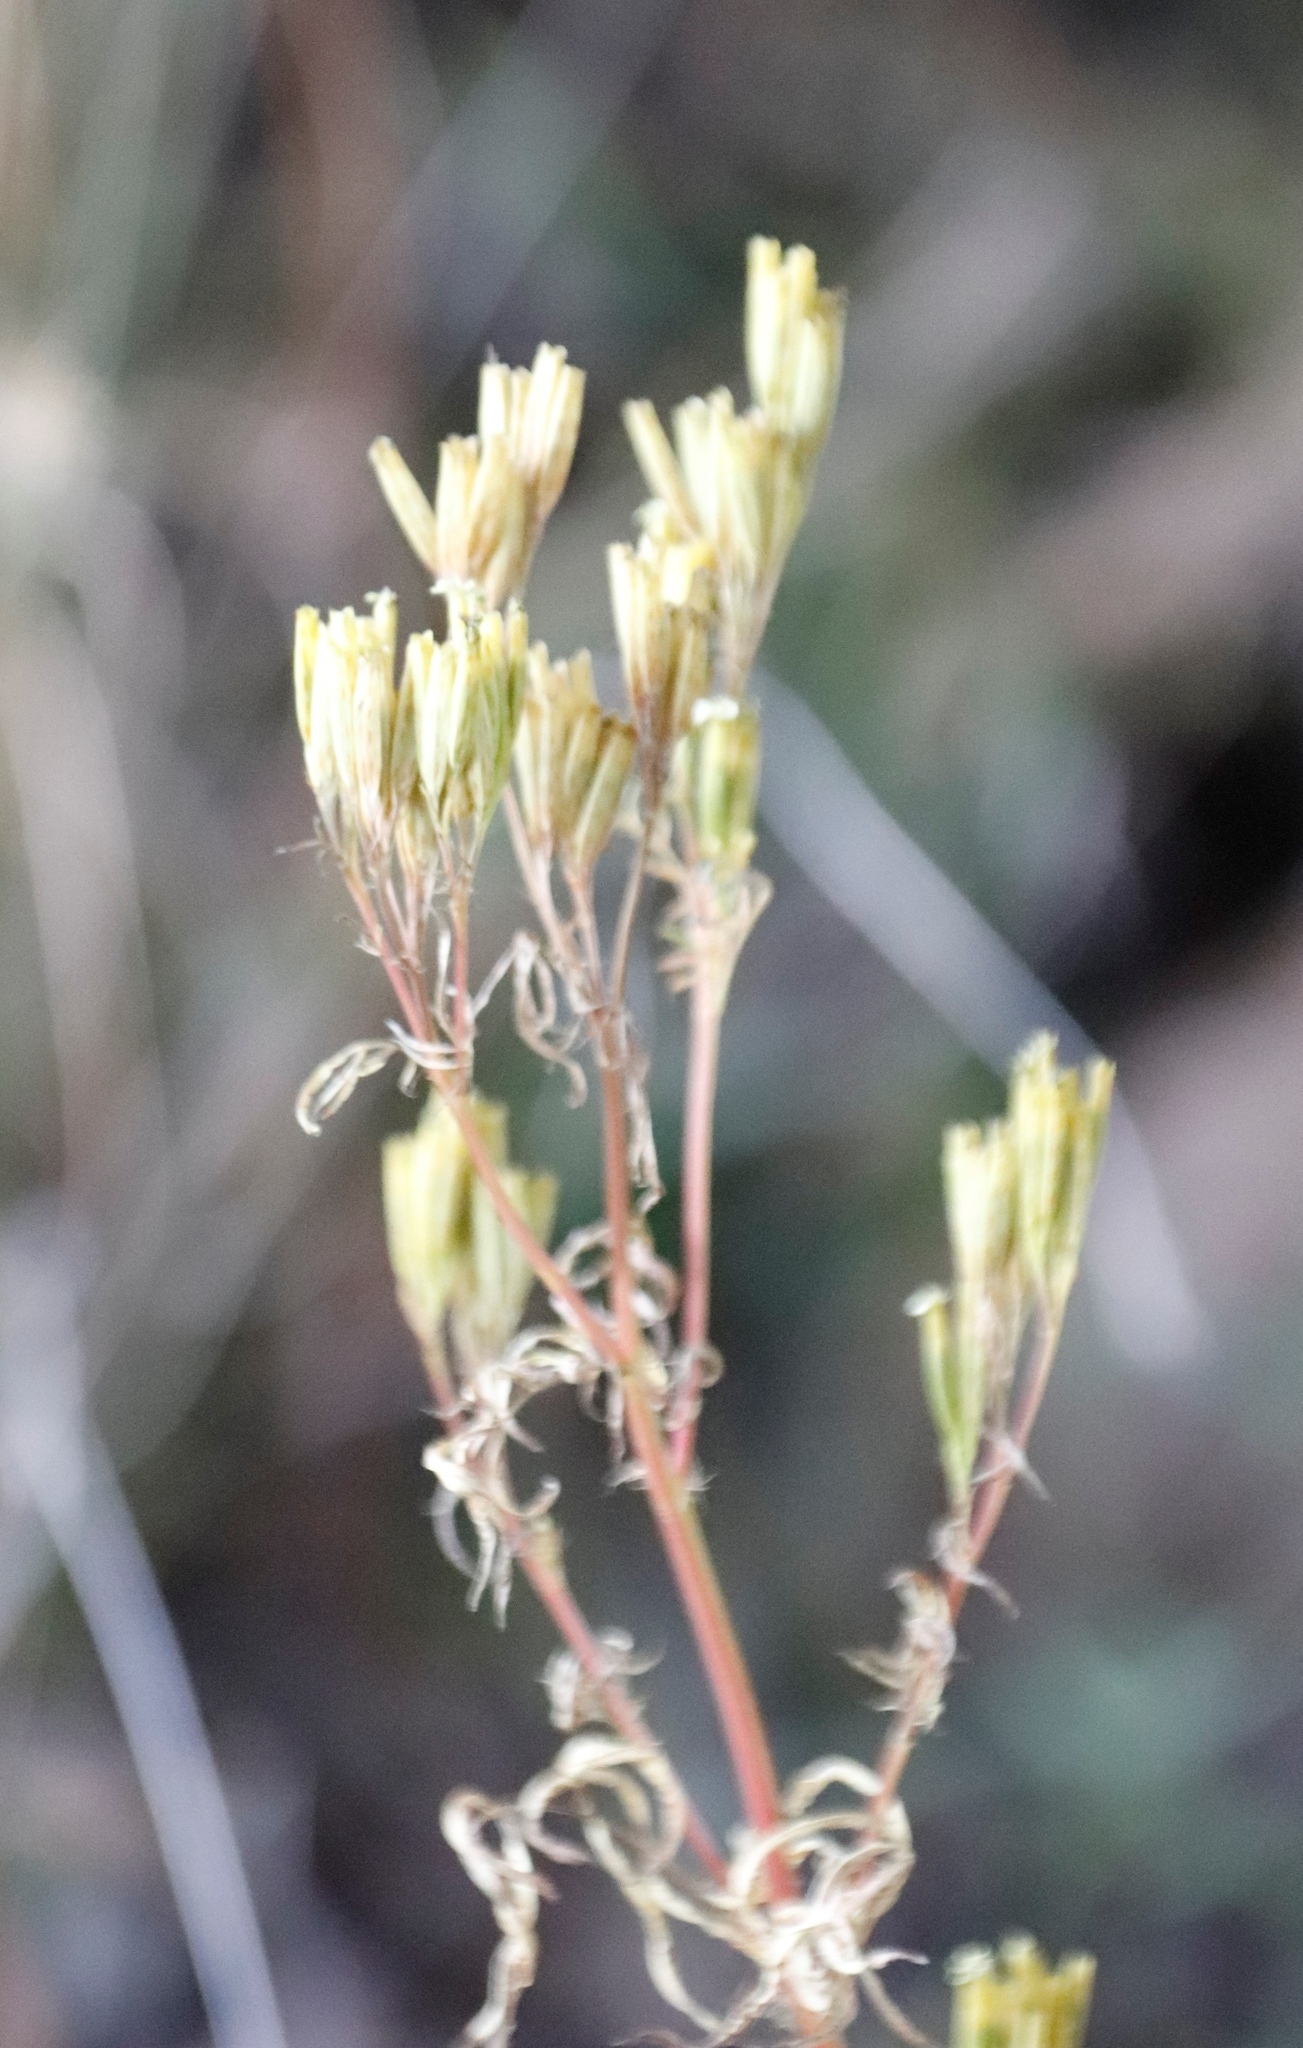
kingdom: Plantae
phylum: Tracheophyta
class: Magnoliopsida
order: Asterales
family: Asteraceae
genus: Tagetes
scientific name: Tagetes minuta
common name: Muster john henry
